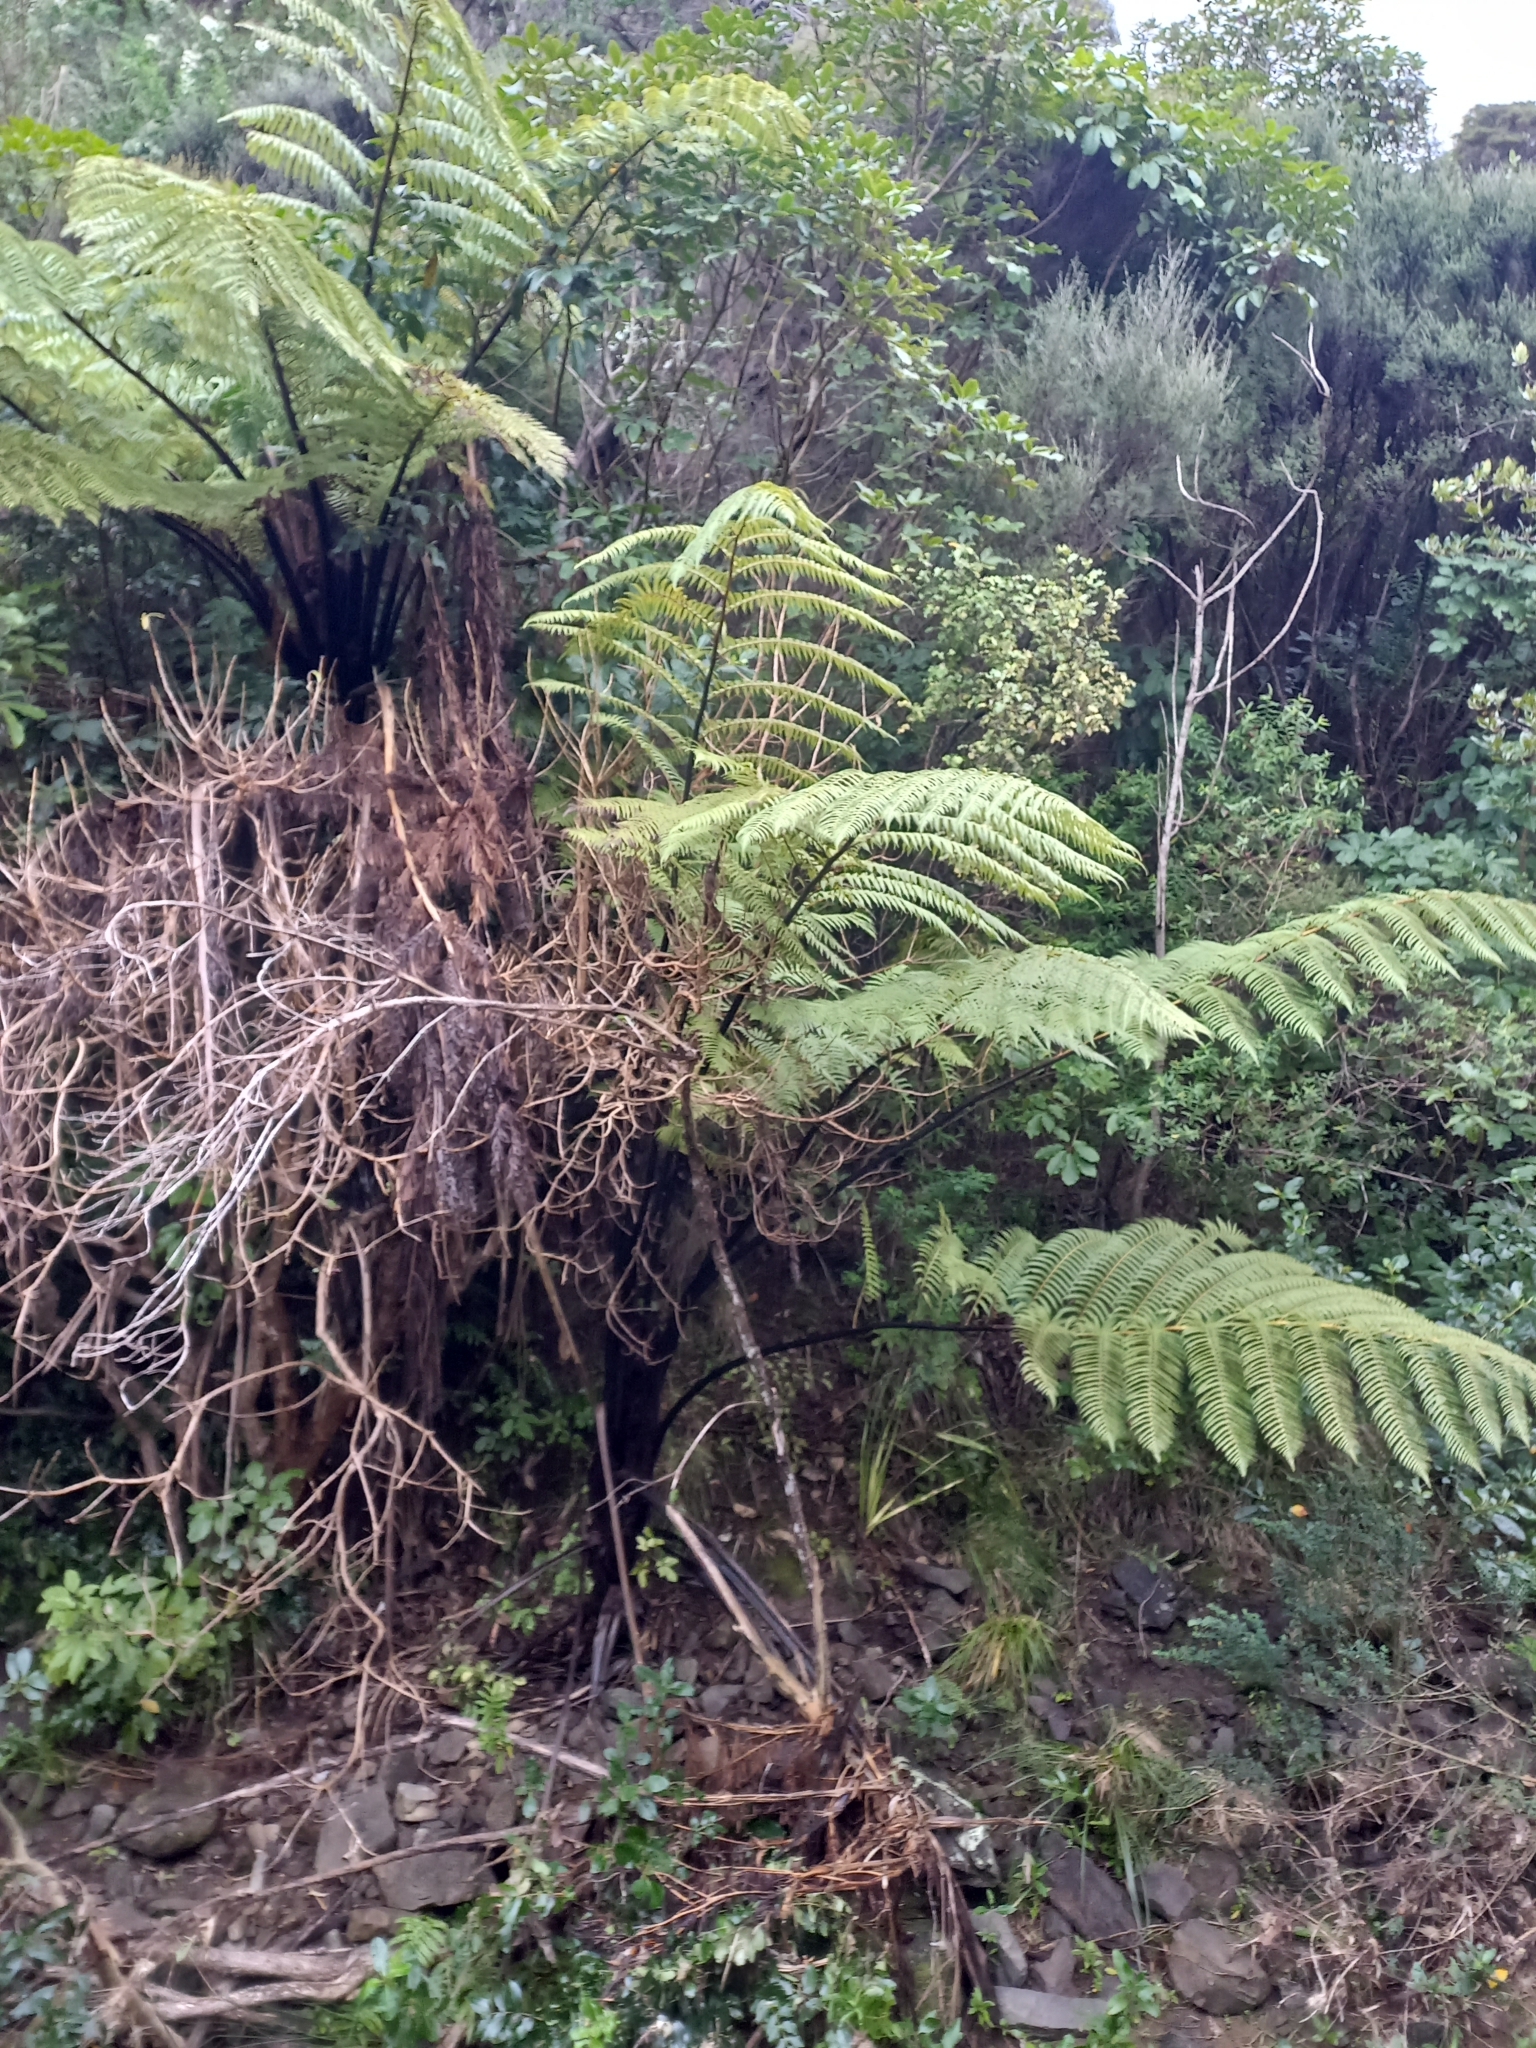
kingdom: Plantae
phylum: Tracheophyta
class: Polypodiopsida
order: Cyatheales
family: Cyatheaceae
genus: Sphaeropteris
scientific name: Sphaeropteris medullaris
